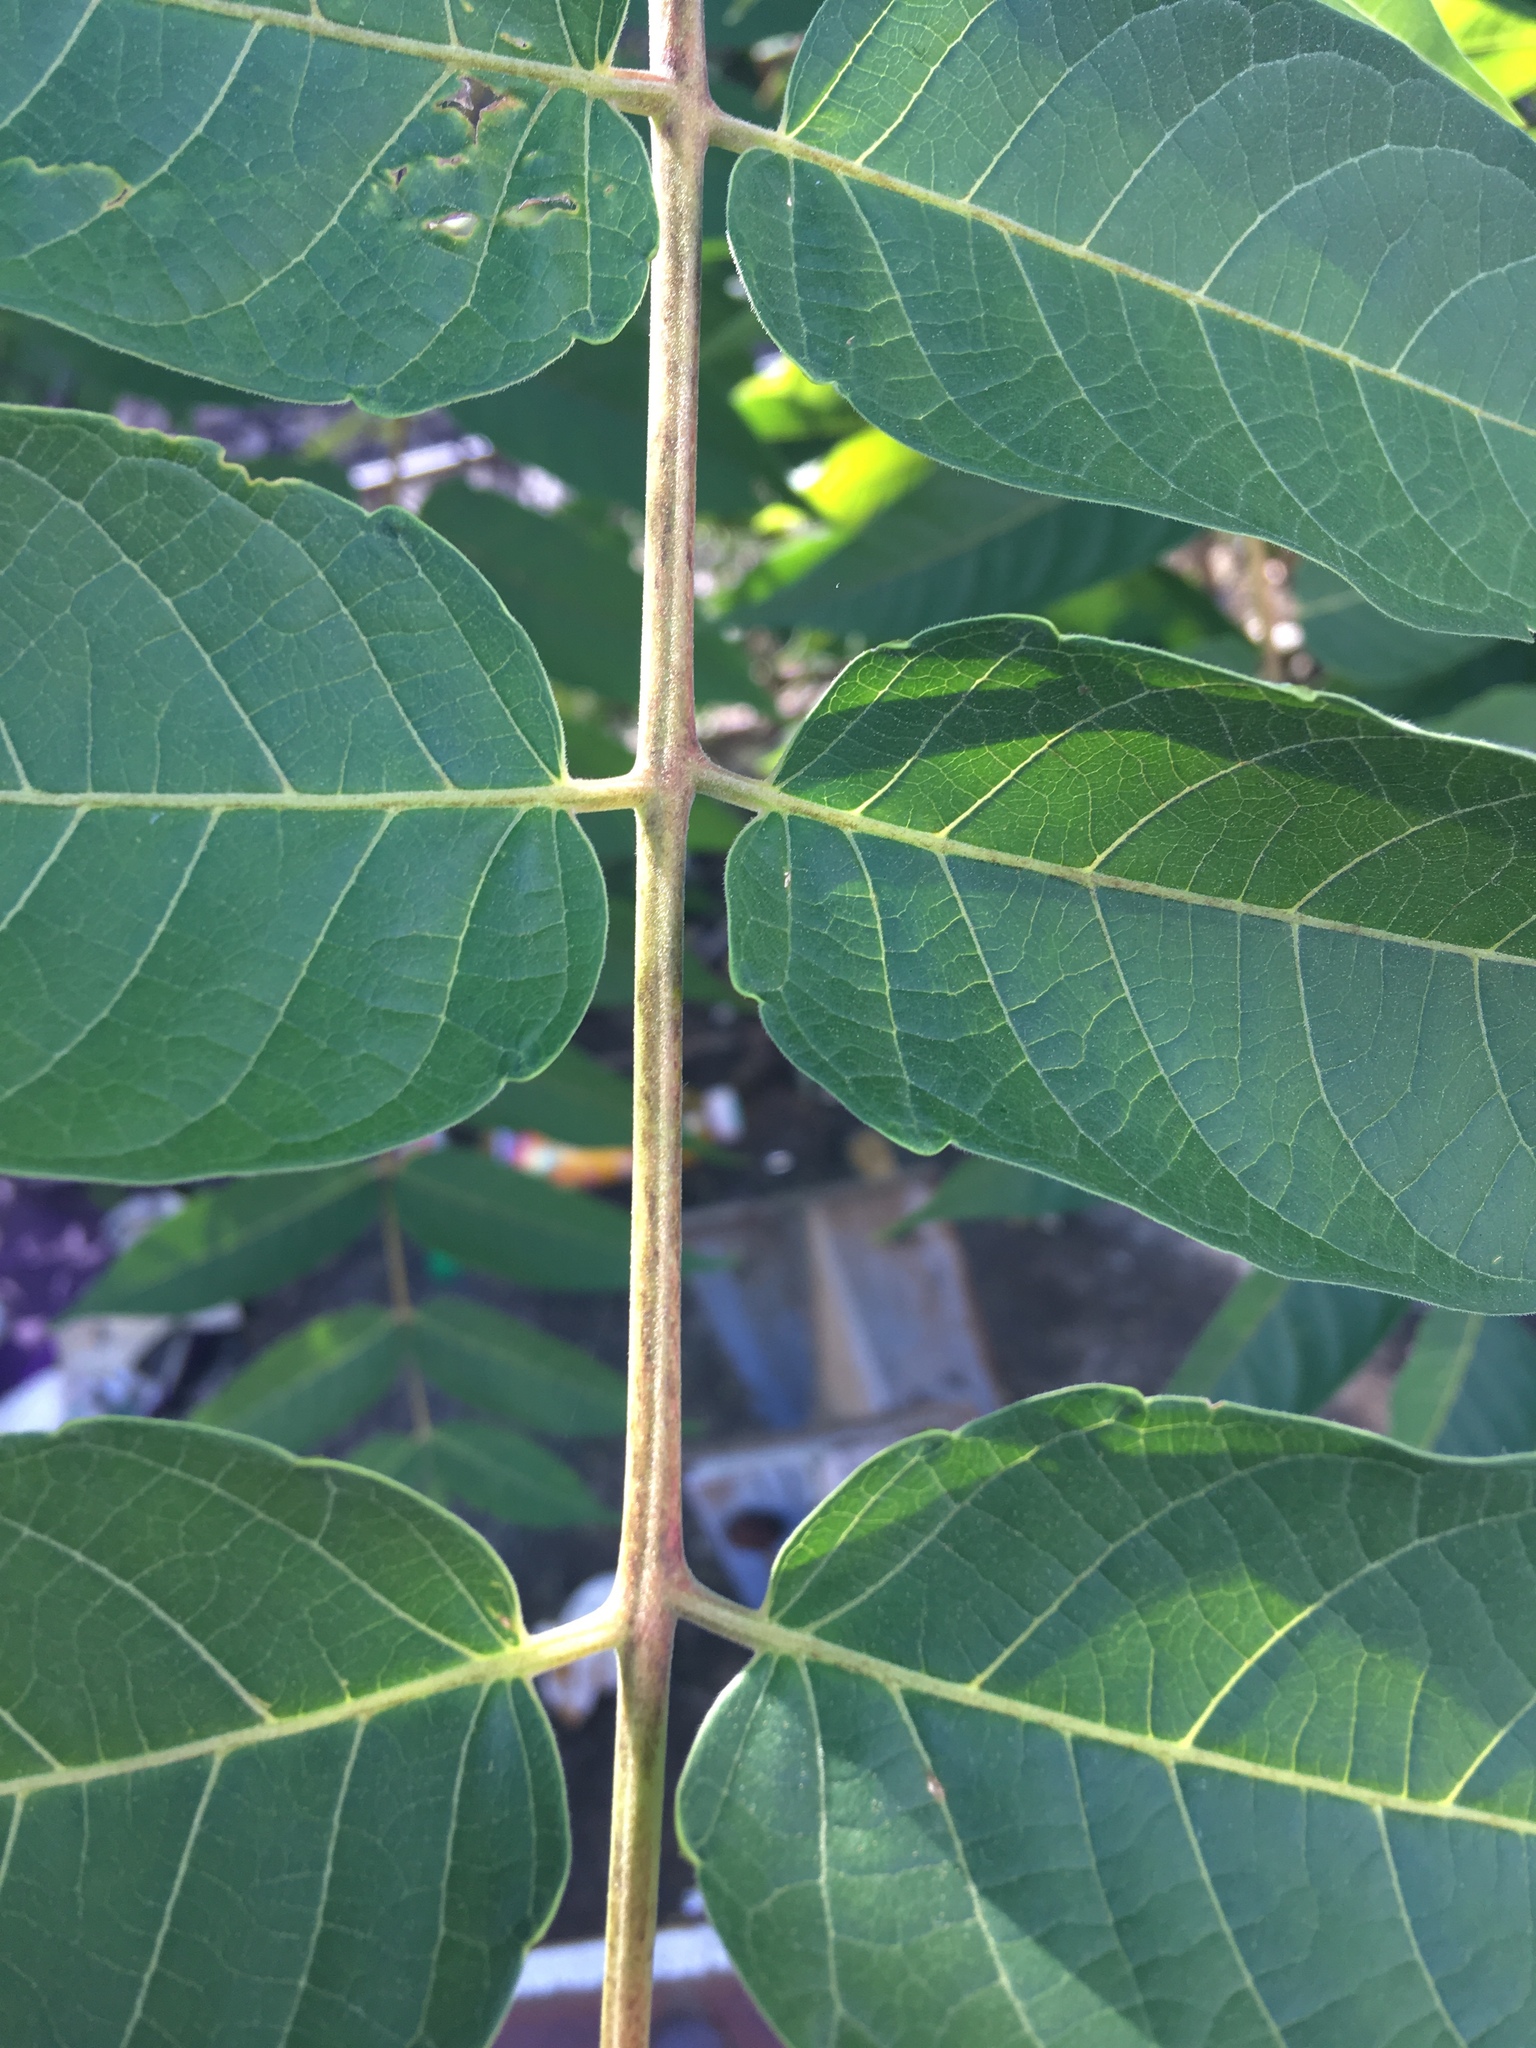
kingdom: Plantae
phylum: Tracheophyta
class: Magnoliopsida
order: Sapindales
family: Simaroubaceae
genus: Ailanthus
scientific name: Ailanthus altissima
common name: Tree-of-heaven
